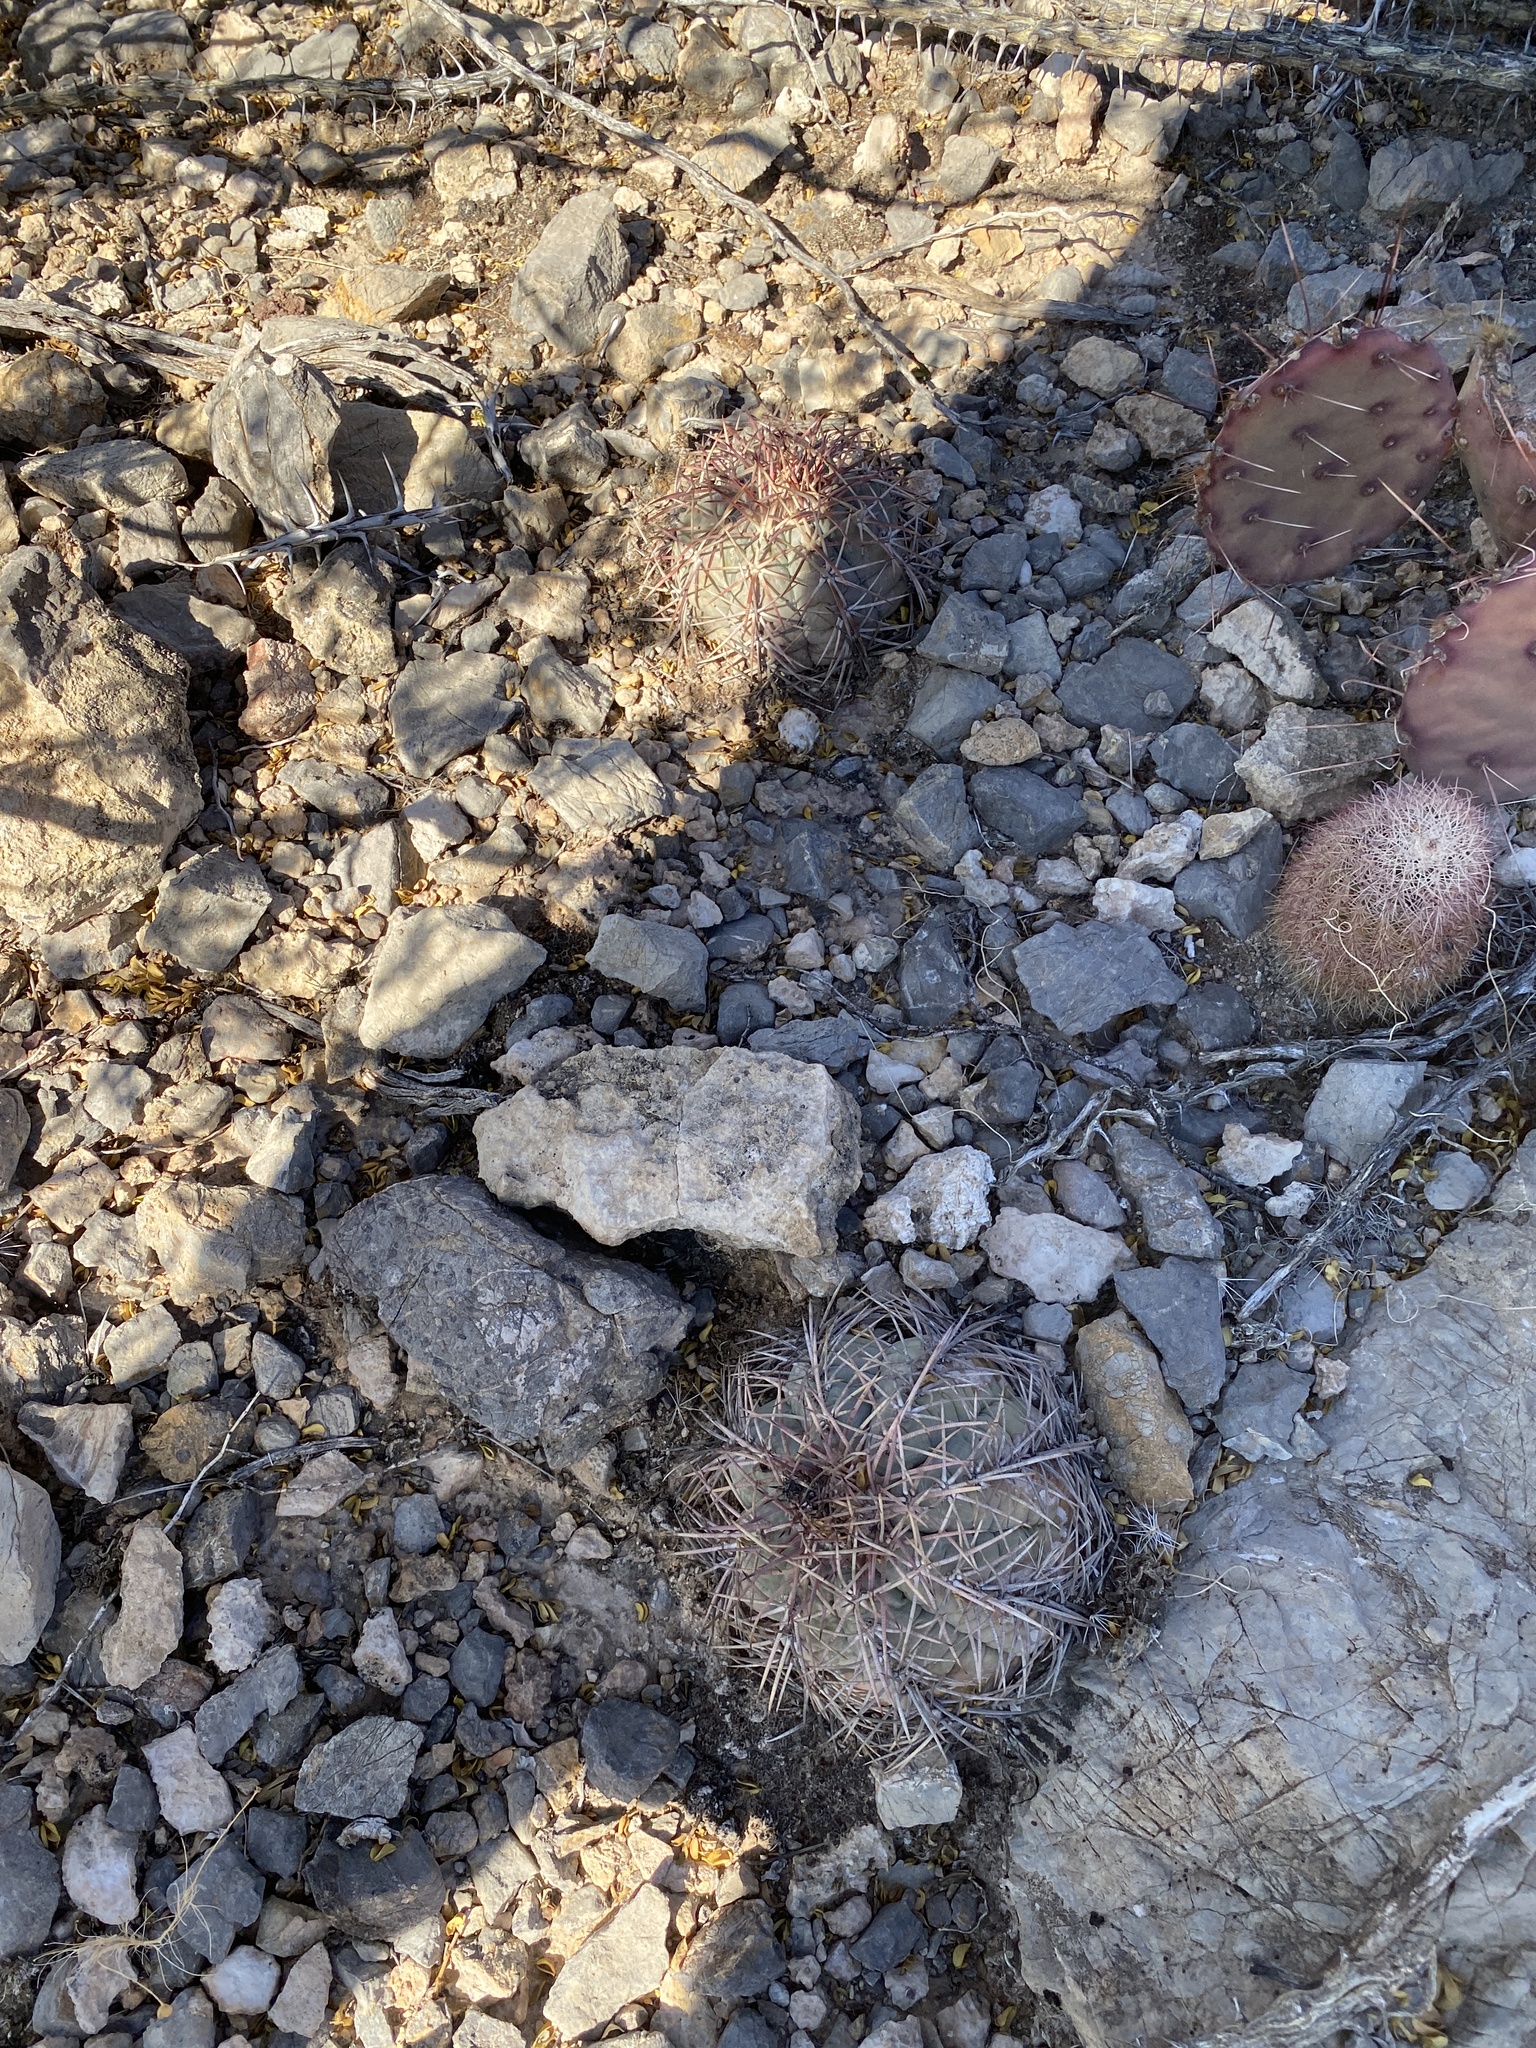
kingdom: Plantae
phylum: Tracheophyta
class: Magnoliopsida
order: Caryophyllales
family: Cactaceae
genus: Echinocactus
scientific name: Echinocactus horizonthalonius
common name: Devilshead
